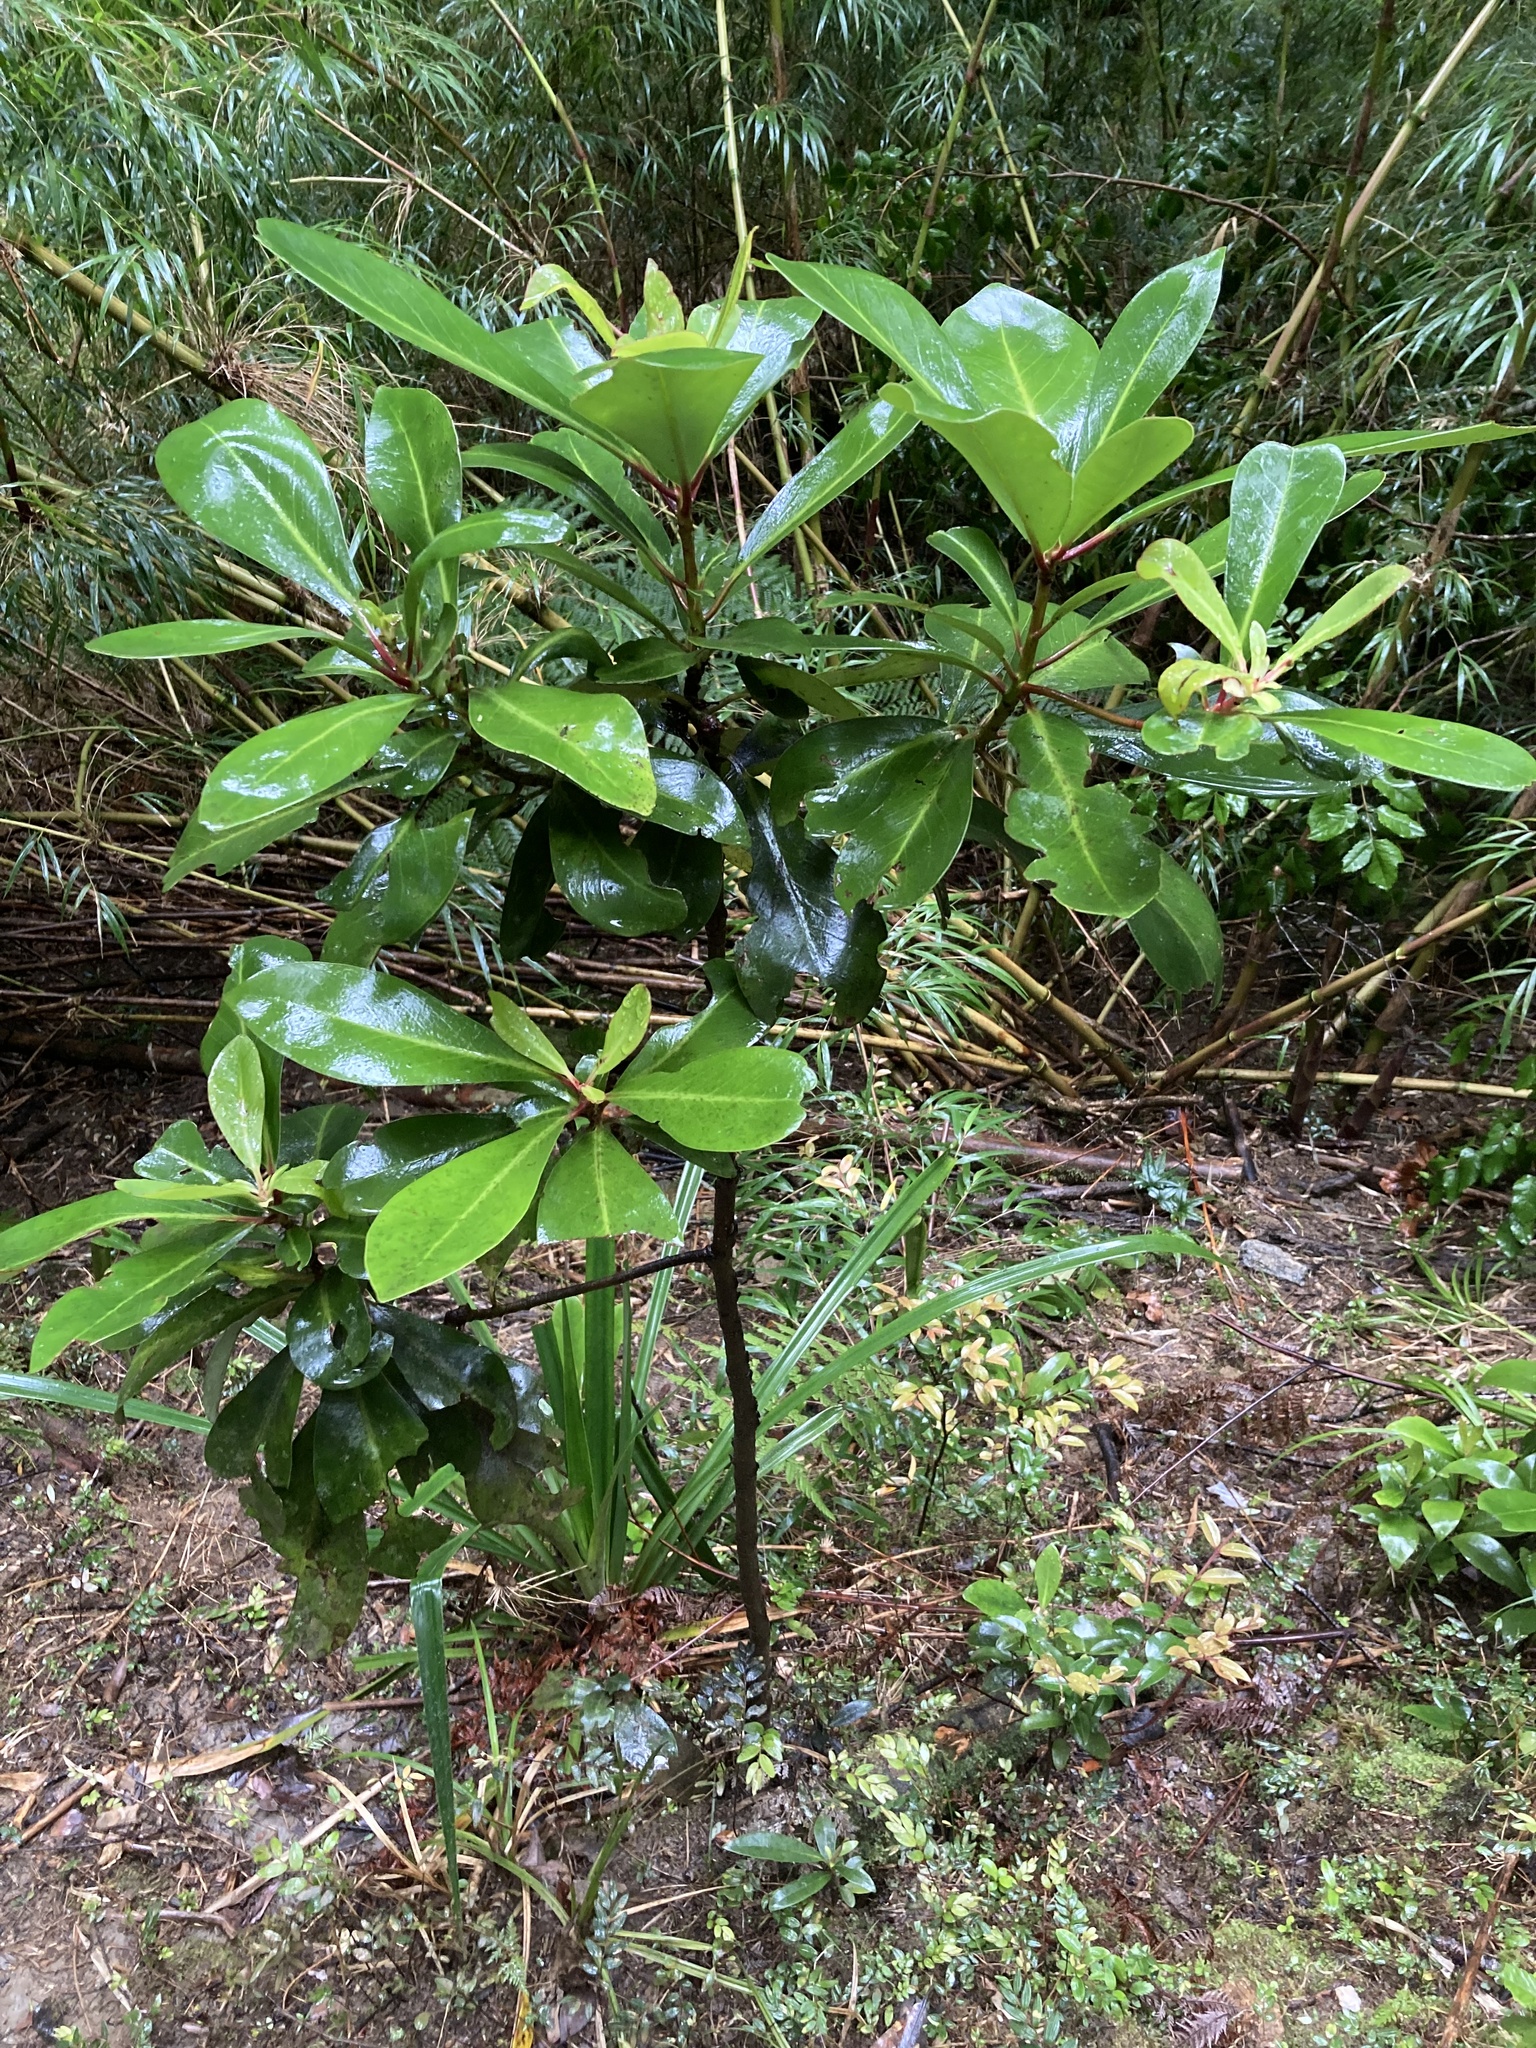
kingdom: Plantae
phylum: Tracheophyta
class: Magnoliopsida
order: Canellales
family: Winteraceae
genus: Drimys
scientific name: Drimys winteri
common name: Winter's-bark
